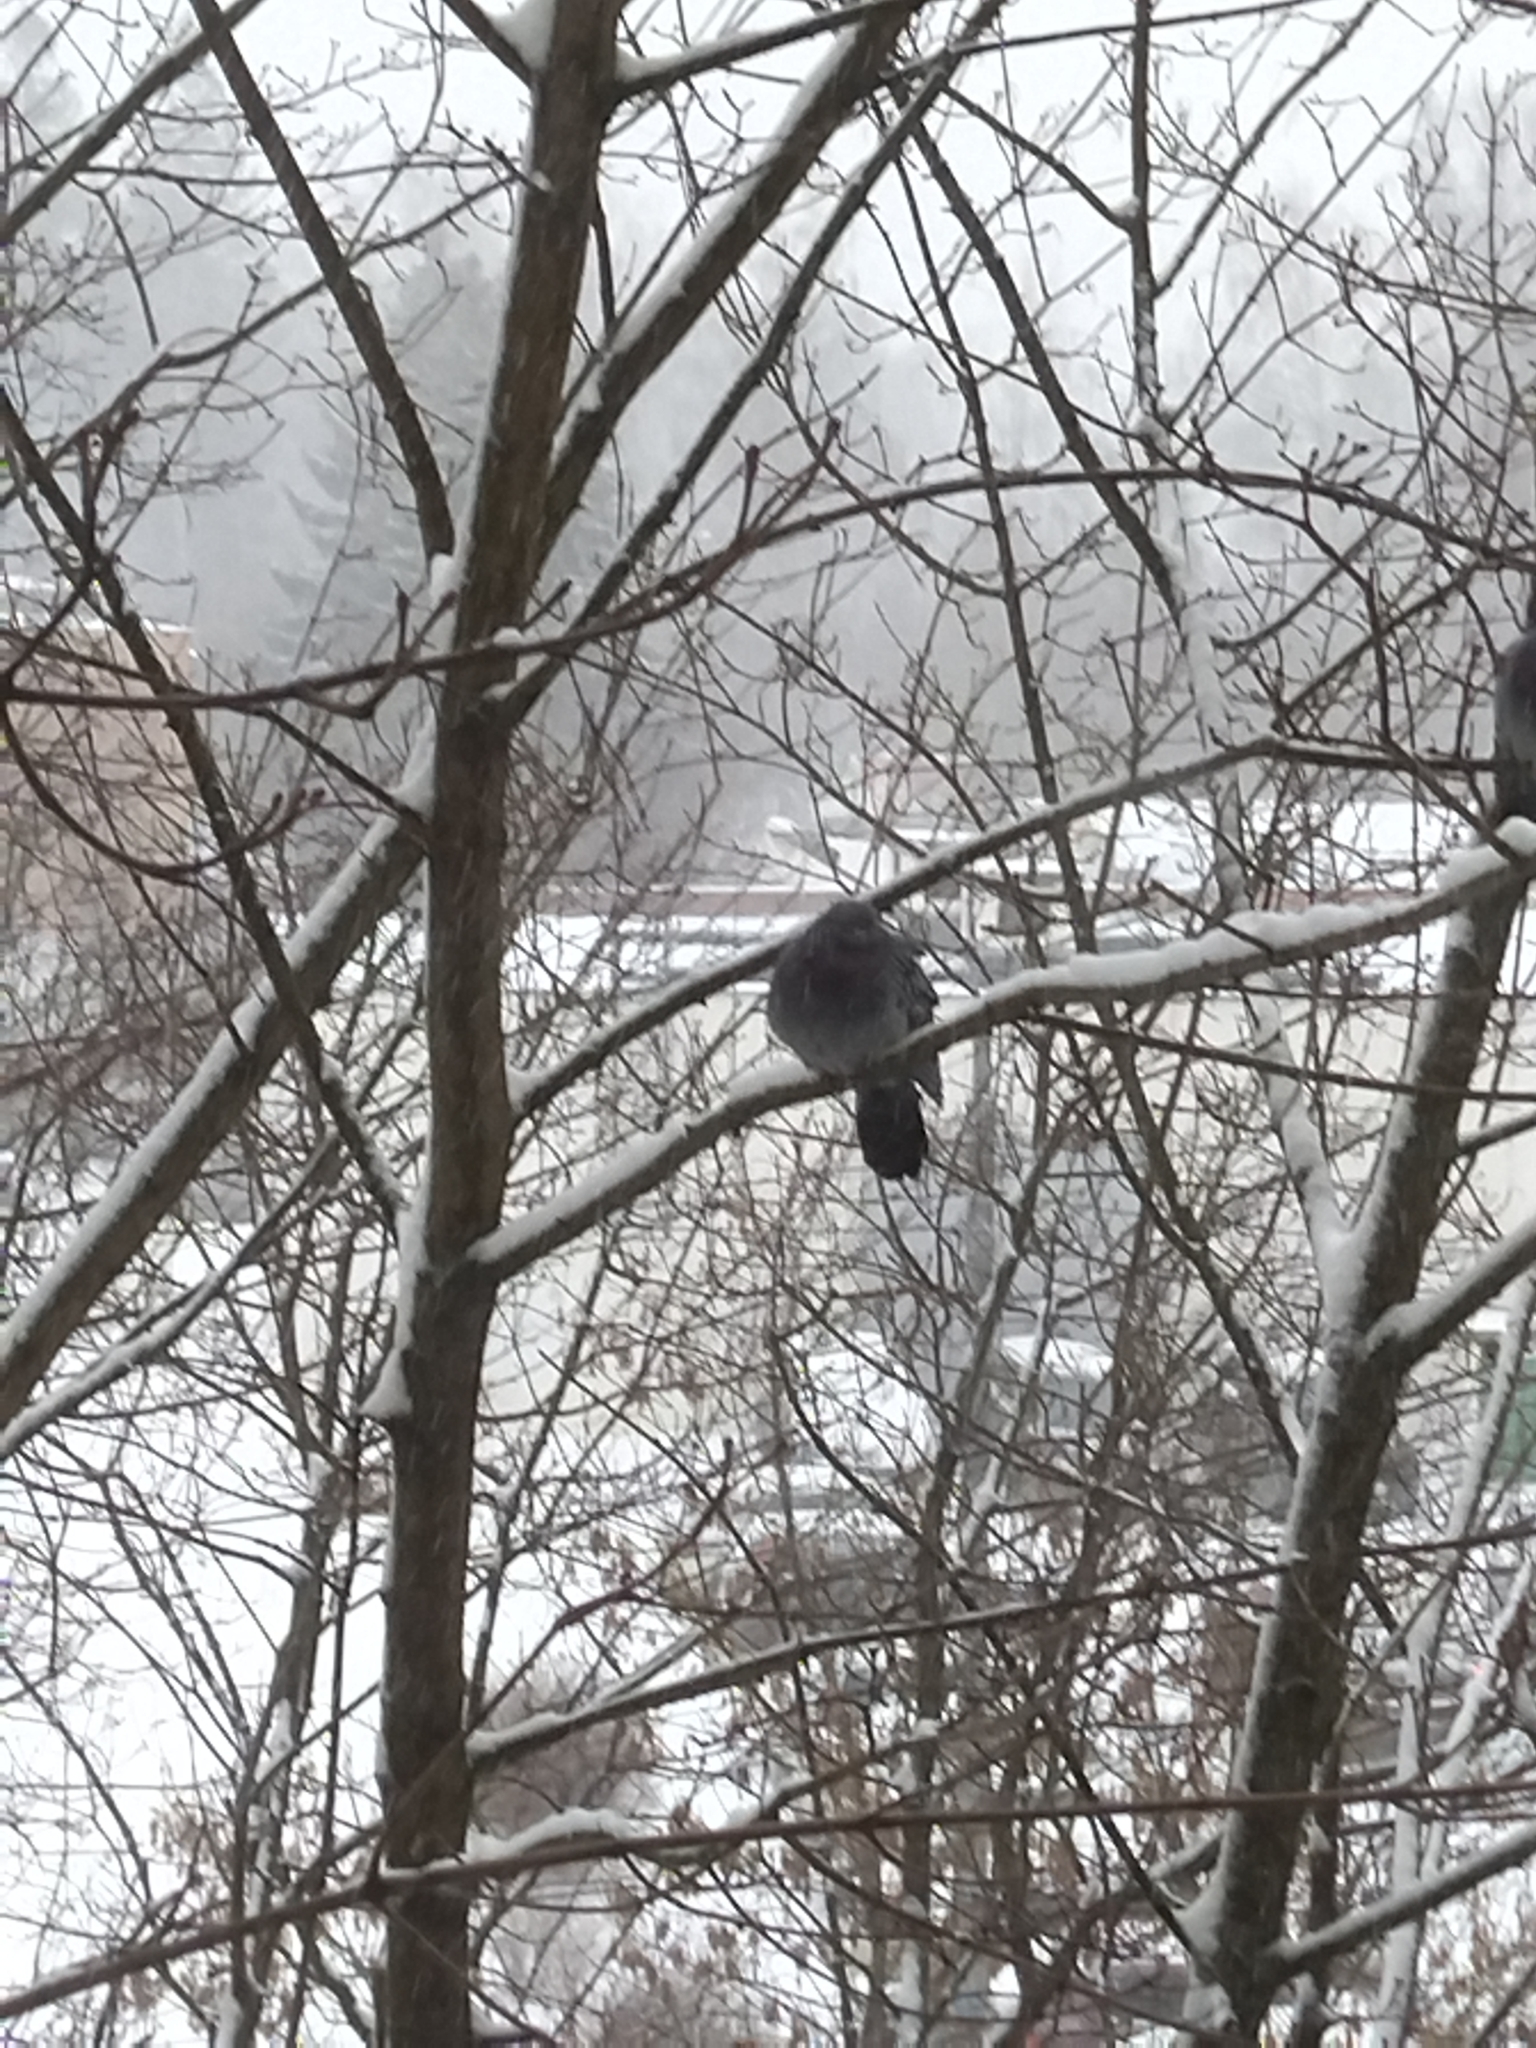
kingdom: Animalia
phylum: Chordata
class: Aves
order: Columbiformes
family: Columbidae
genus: Columba
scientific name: Columba livia
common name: Rock pigeon
